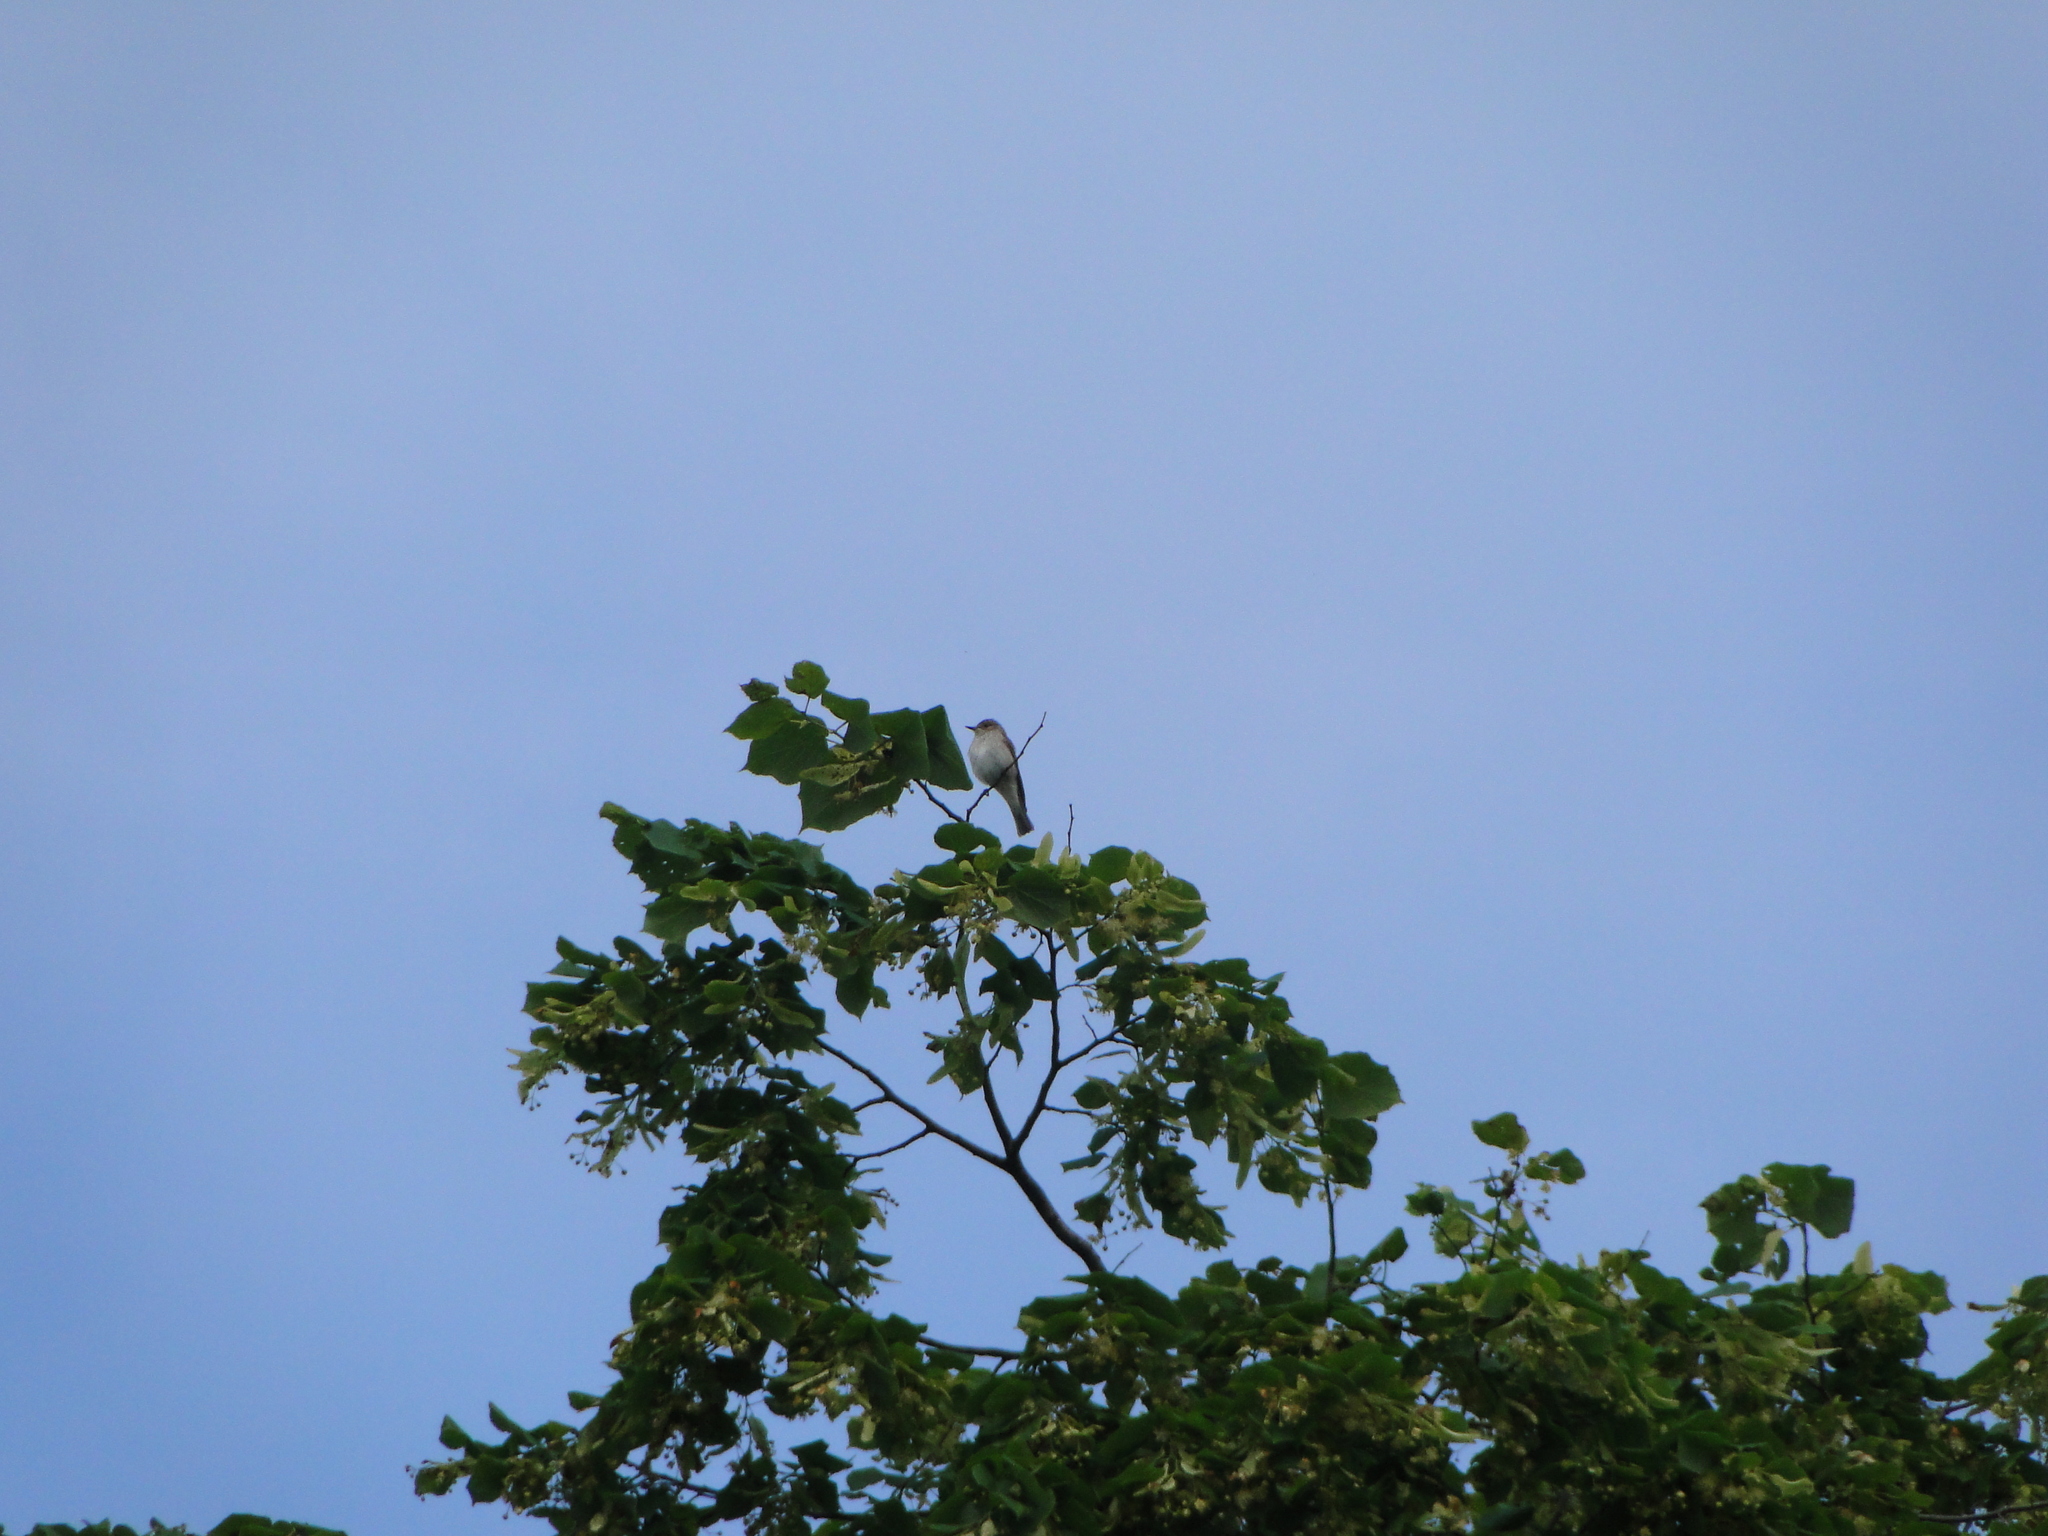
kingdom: Animalia
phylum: Chordata
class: Aves
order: Passeriformes
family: Muscicapidae
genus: Muscicapa
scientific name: Muscicapa striata
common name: Spotted flycatcher
